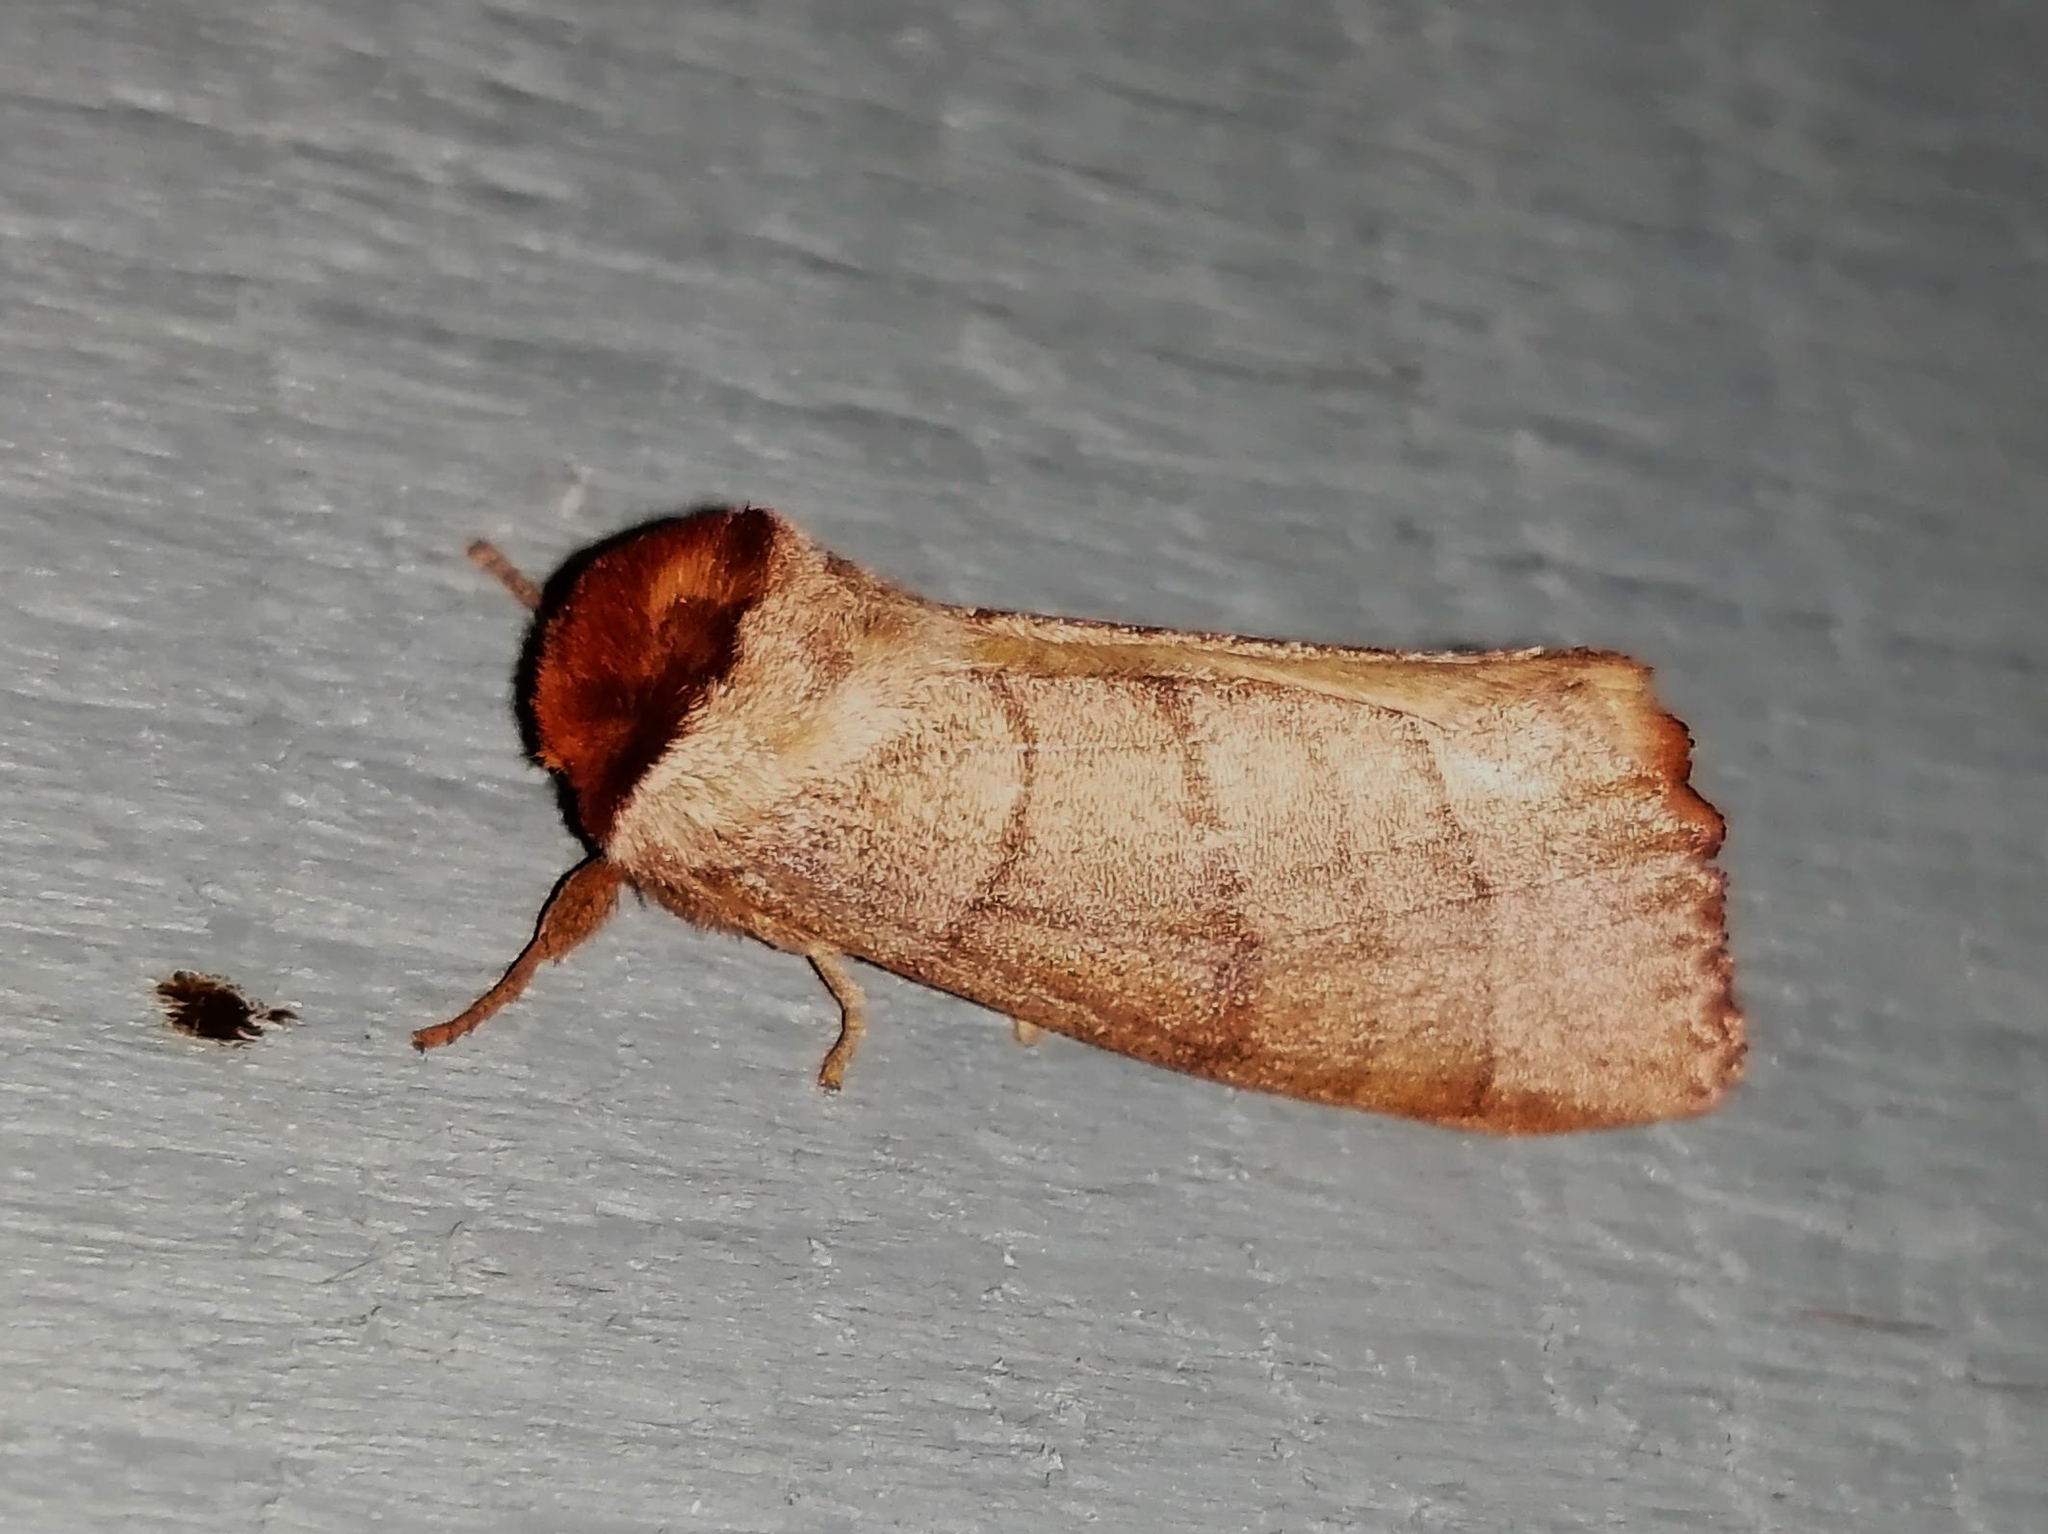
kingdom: Animalia
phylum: Arthropoda
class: Insecta
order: Lepidoptera
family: Notodontidae
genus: Datana
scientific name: Datana ministra
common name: Yellow-necked caterpillar moth
